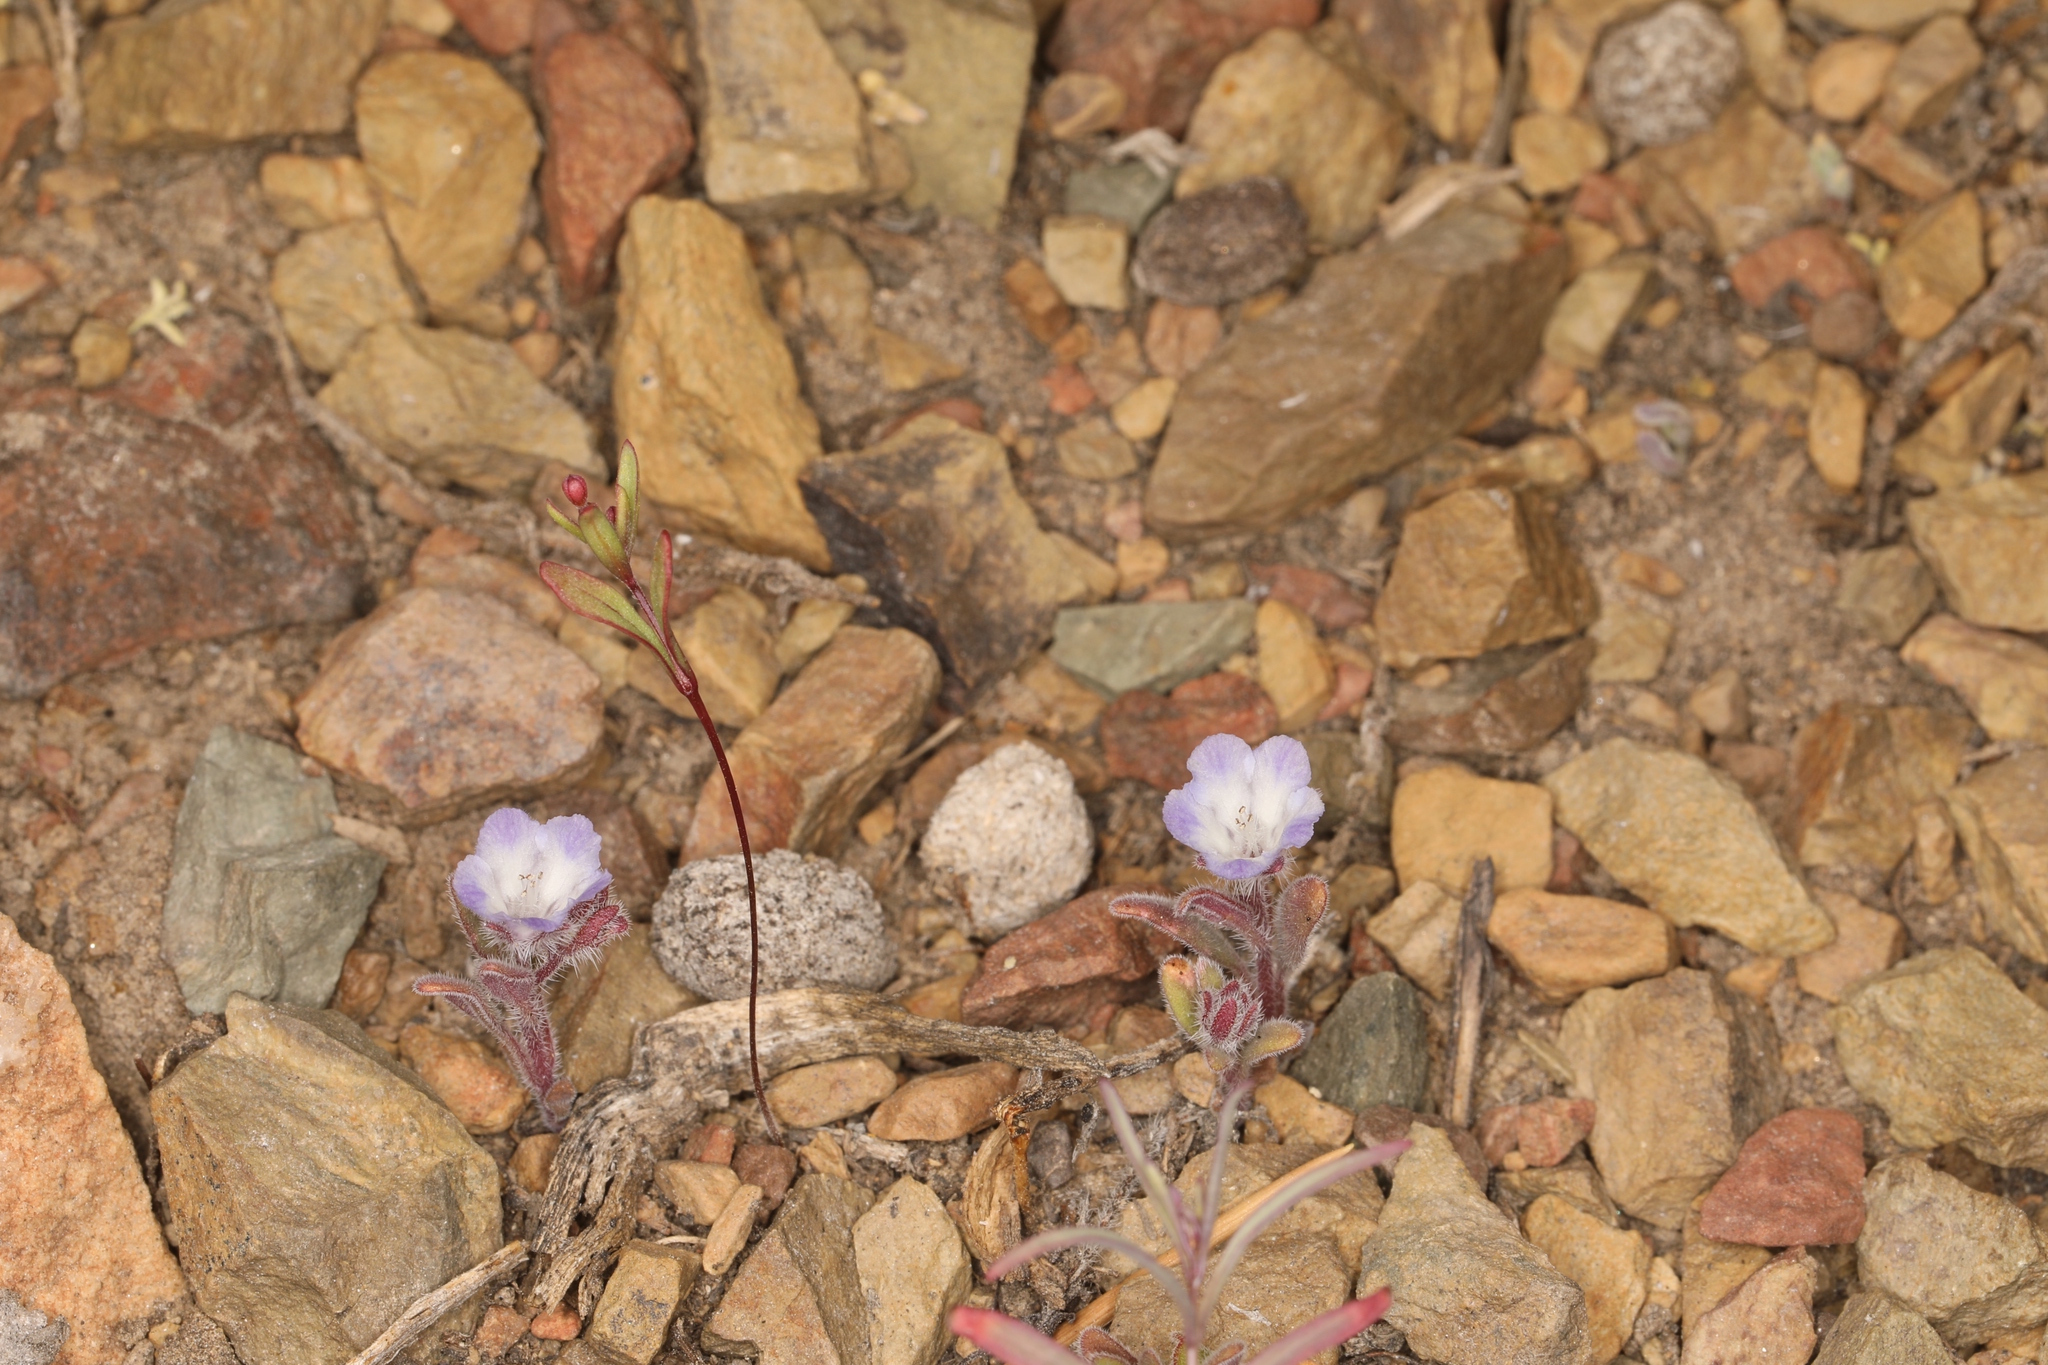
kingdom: Plantae
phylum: Tracheophyta
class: Magnoliopsida
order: Boraginales
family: Hydrophyllaceae
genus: Phacelia
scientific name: Phacelia curvipes
